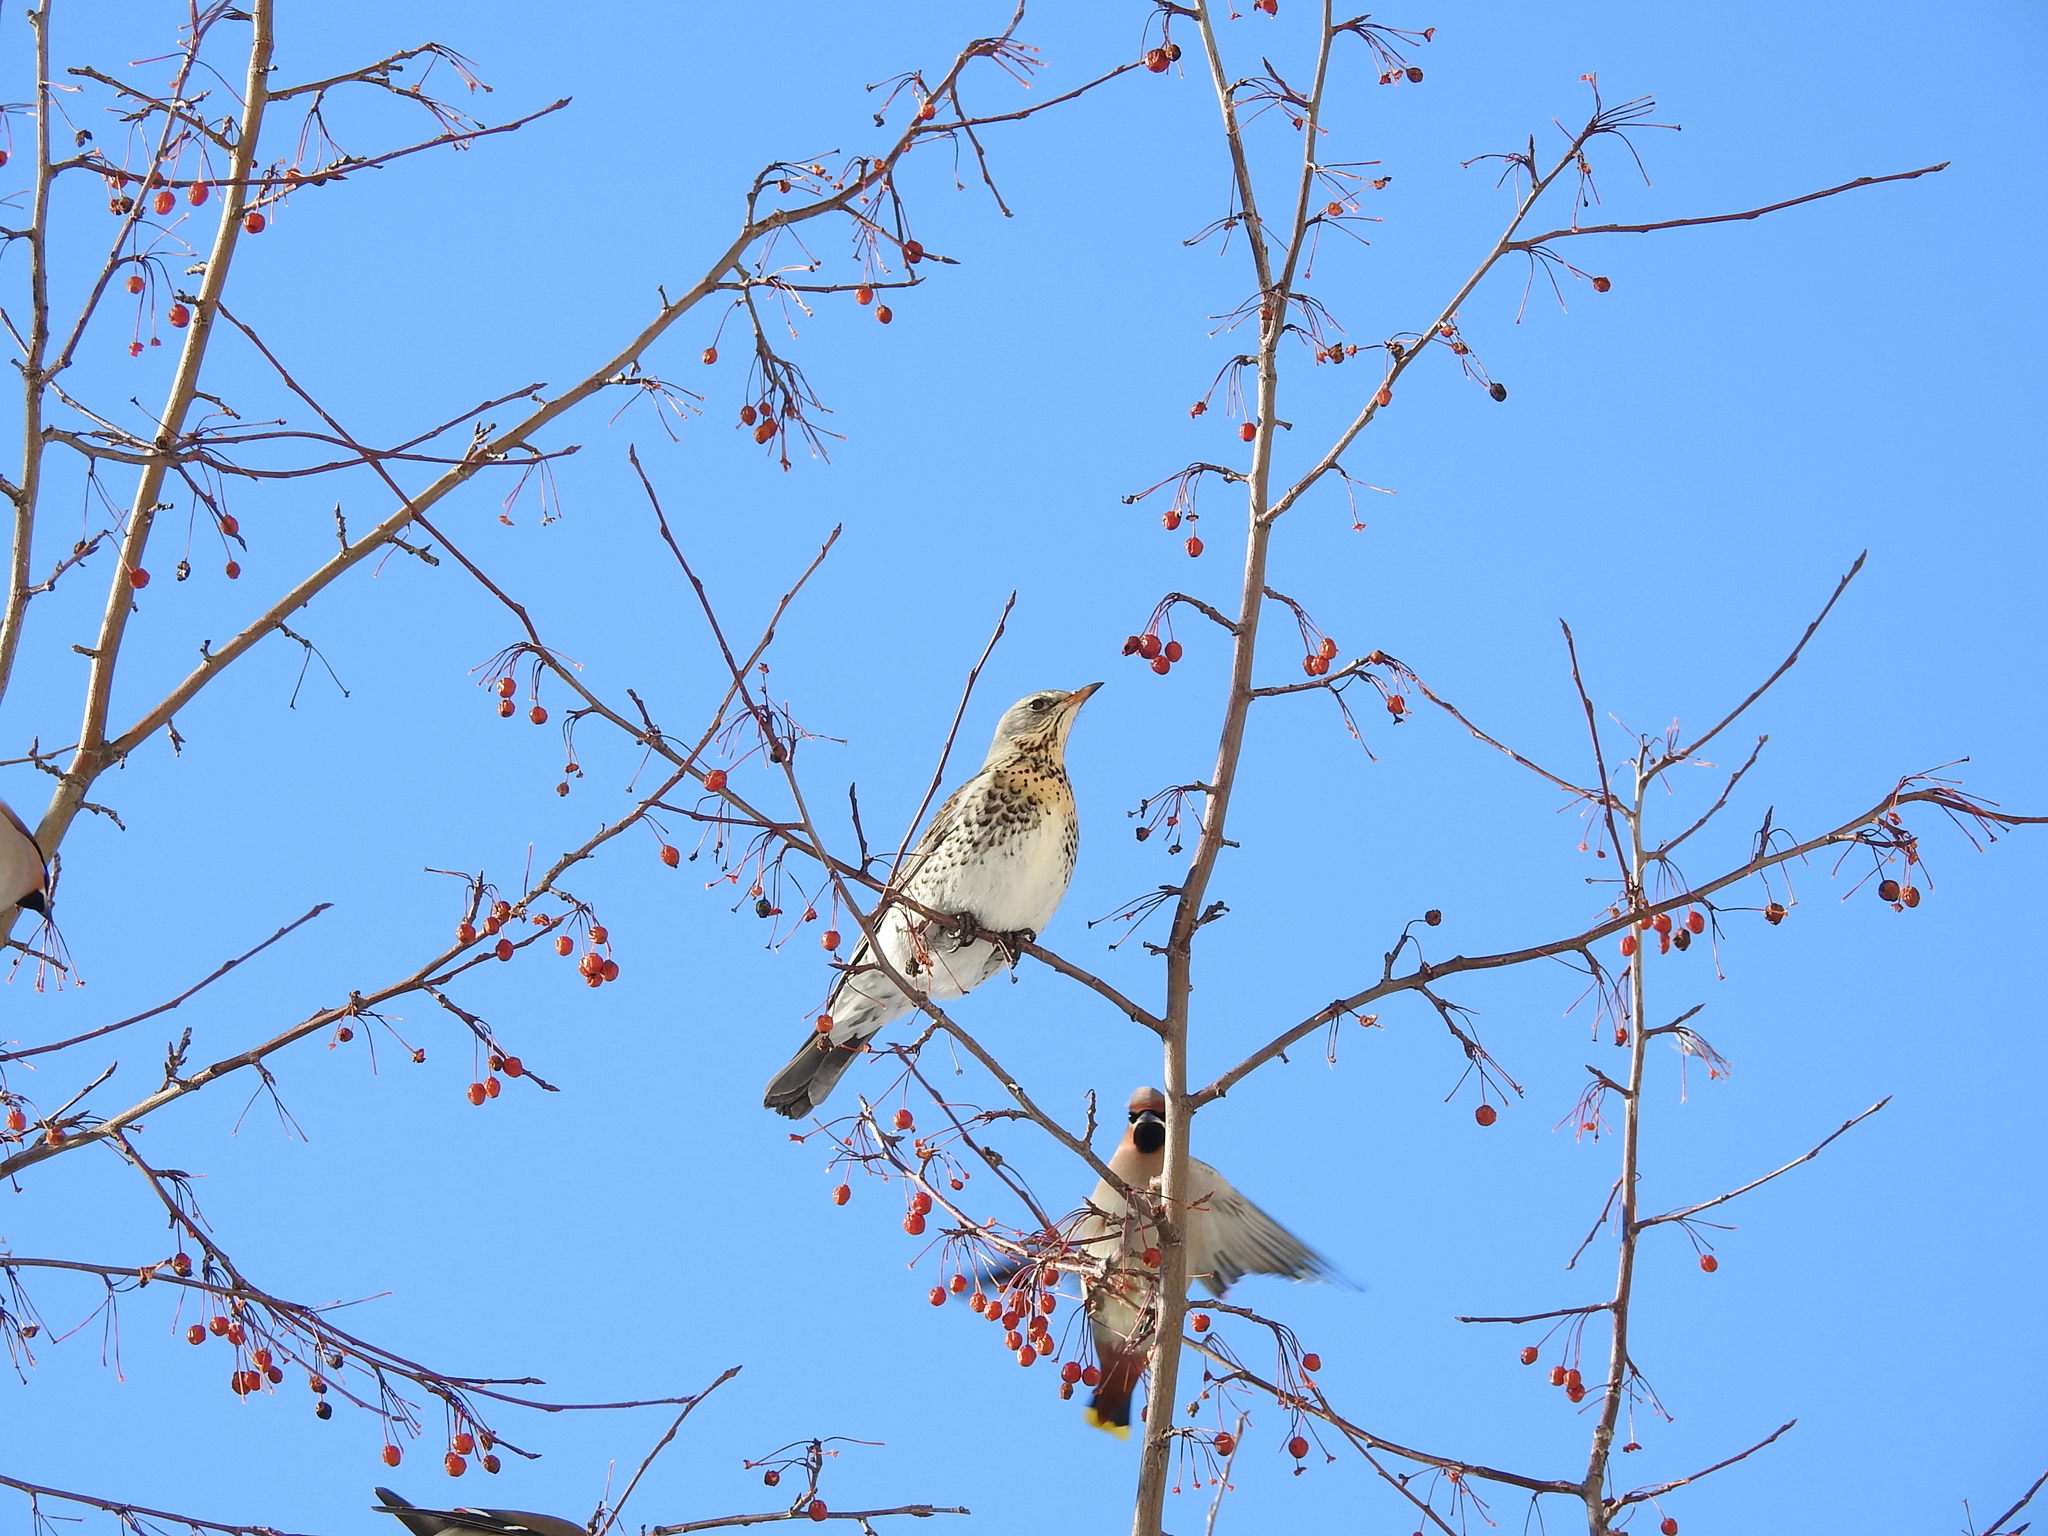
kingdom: Animalia
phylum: Chordata
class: Aves
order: Passeriformes
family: Turdidae
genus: Turdus
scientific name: Turdus pilaris
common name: Fieldfare
